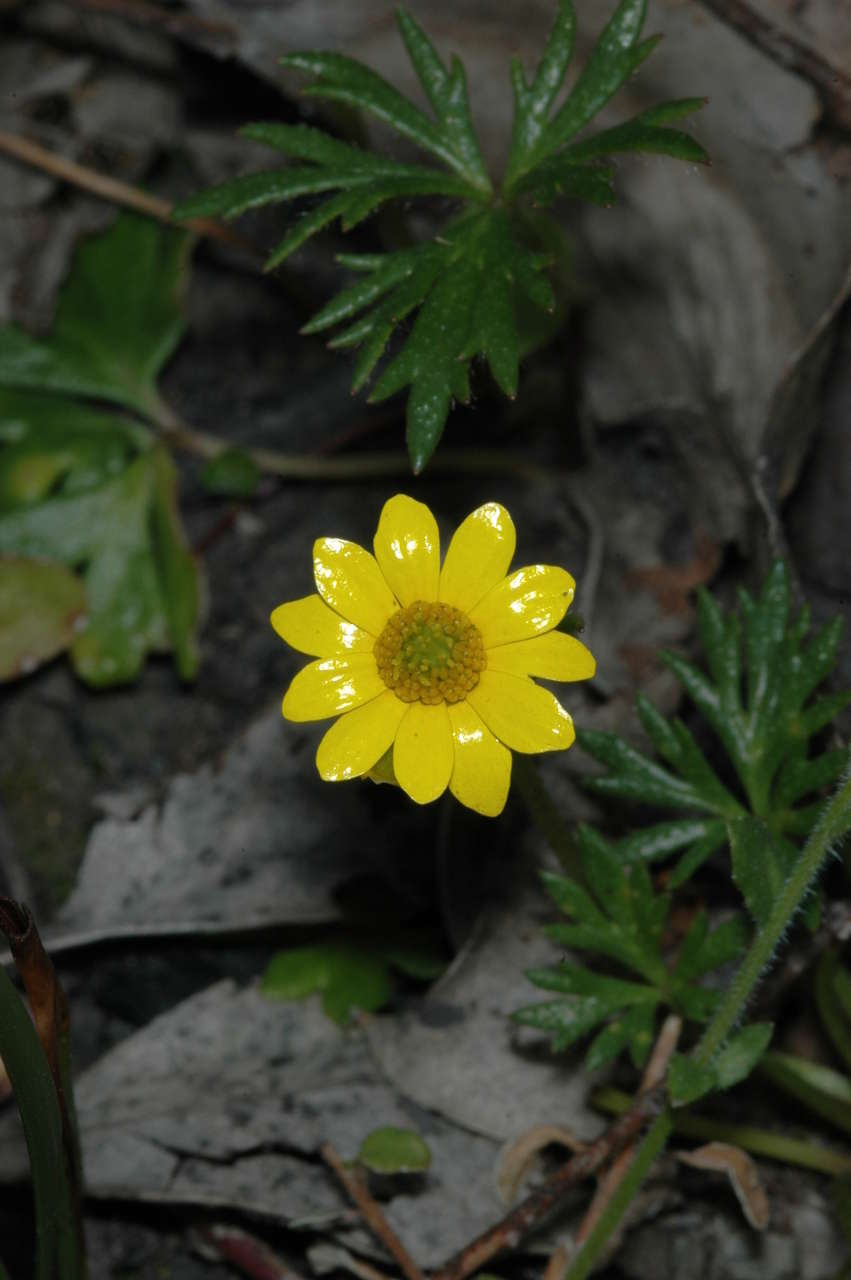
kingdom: Plantae
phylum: Tracheophyta
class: Magnoliopsida
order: Ranunculales
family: Ranunculaceae
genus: Ranunculus
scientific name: Ranunculus glabrifolius
